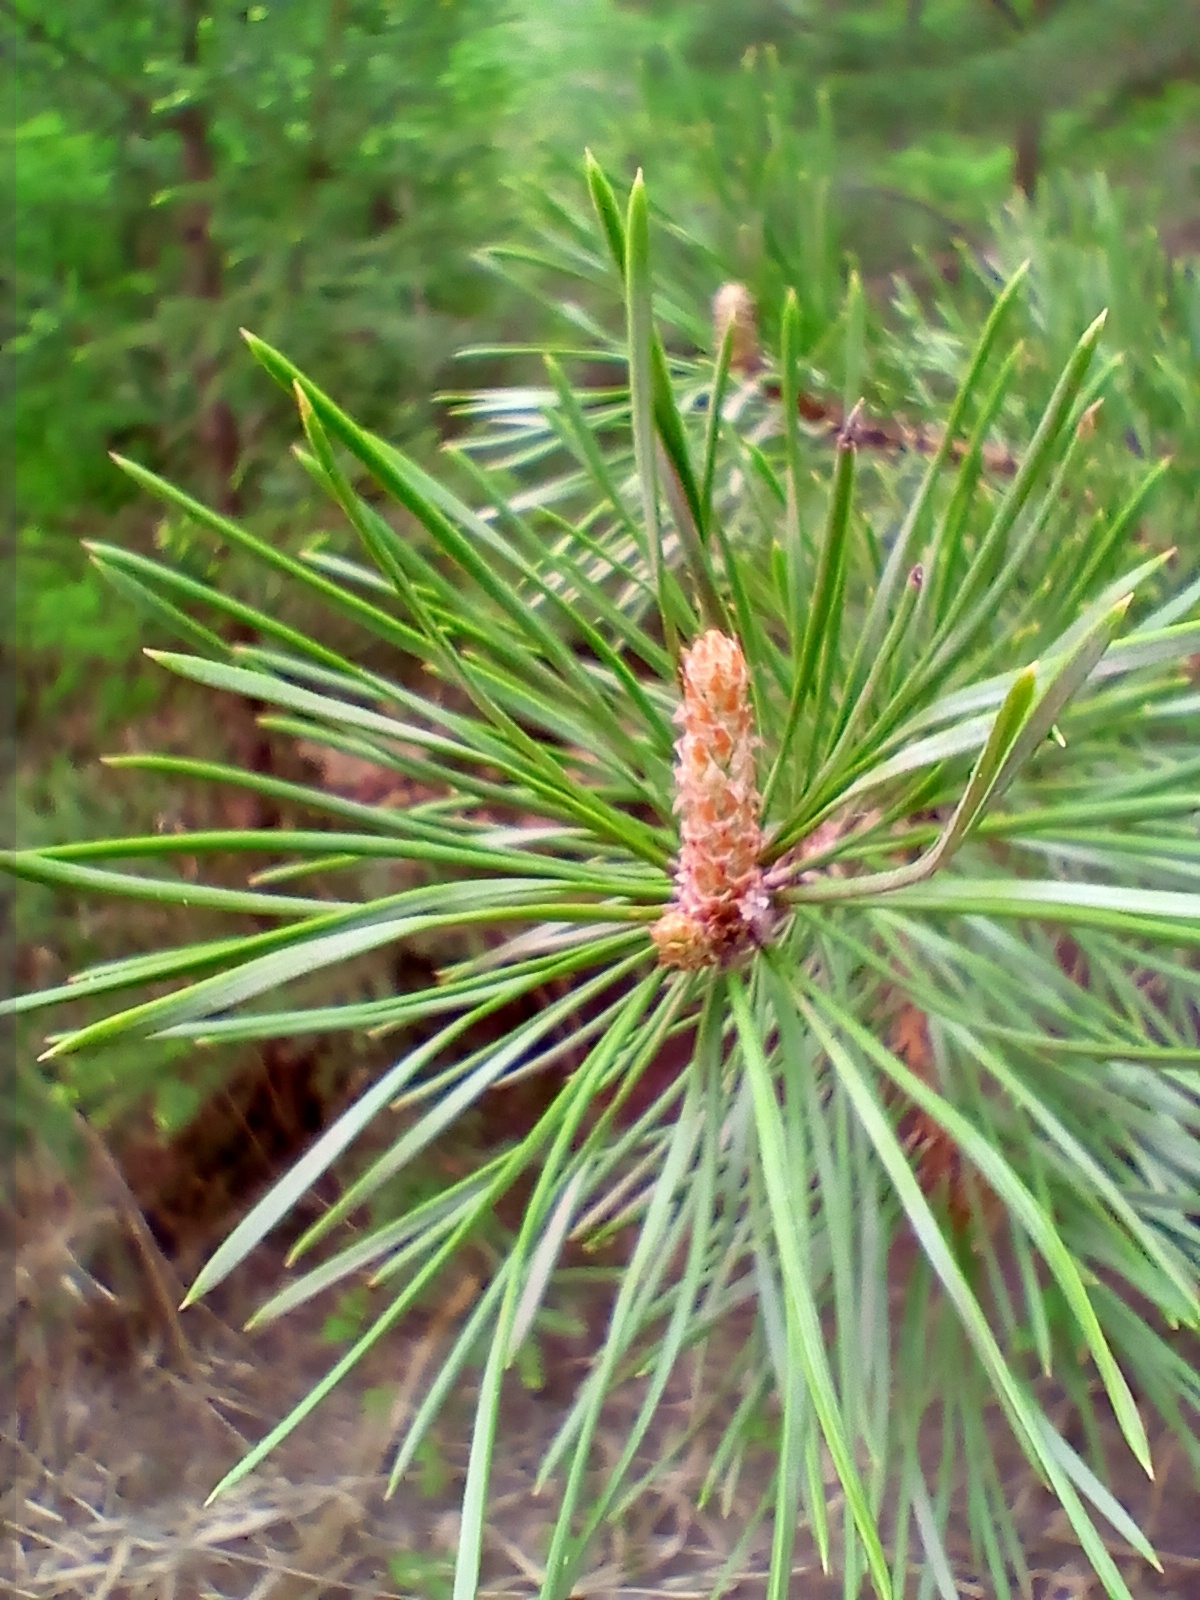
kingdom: Plantae
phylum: Tracheophyta
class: Pinopsida
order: Pinales
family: Pinaceae
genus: Pinus
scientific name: Pinus sylvestris
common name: Scots pine
